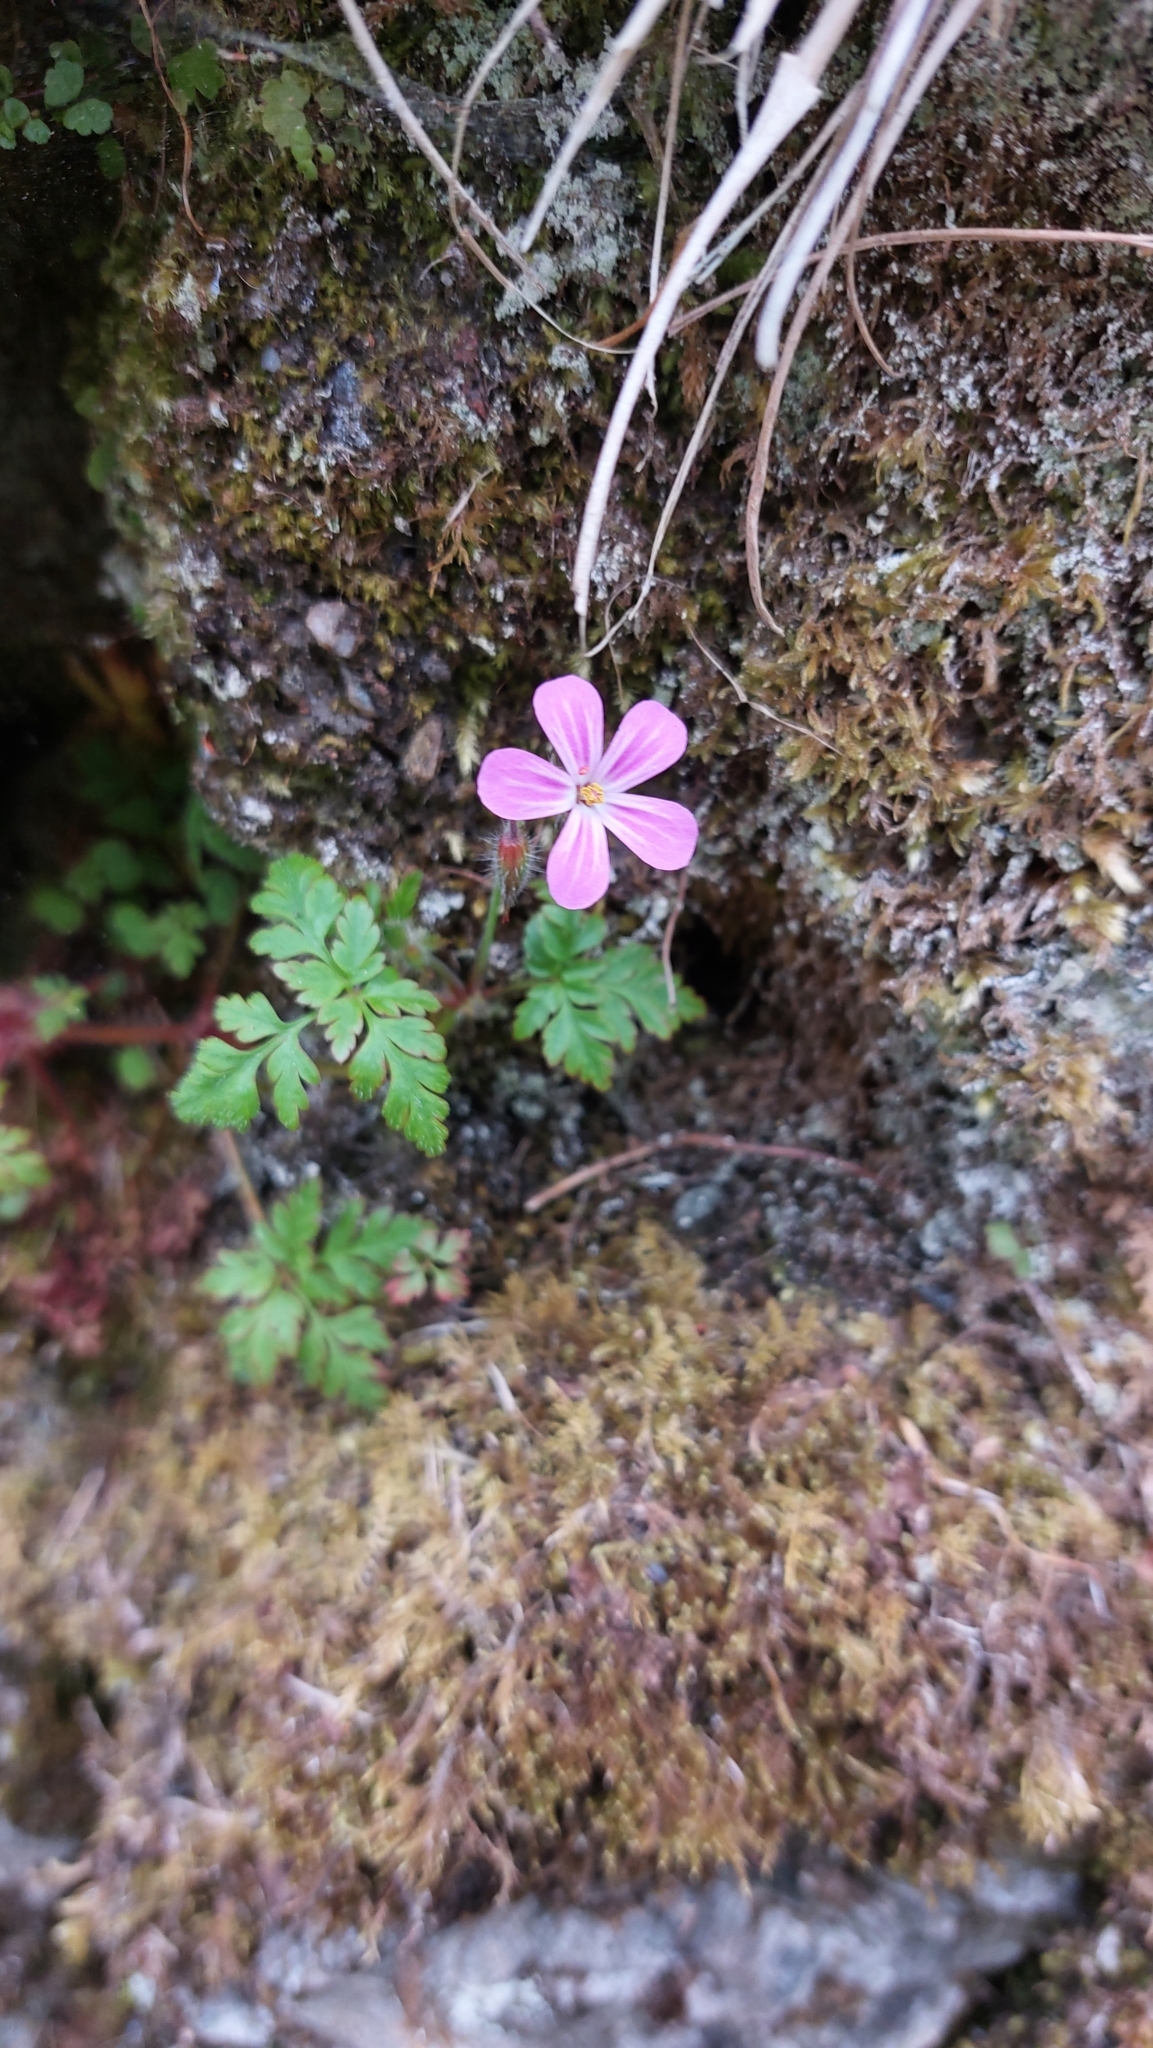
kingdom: Plantae
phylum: Tracheophyta
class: Magnoliopsida
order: Geraniales
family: Geraniaceae
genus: Geranium
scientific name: Geranium robertianum
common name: Herb-robert
